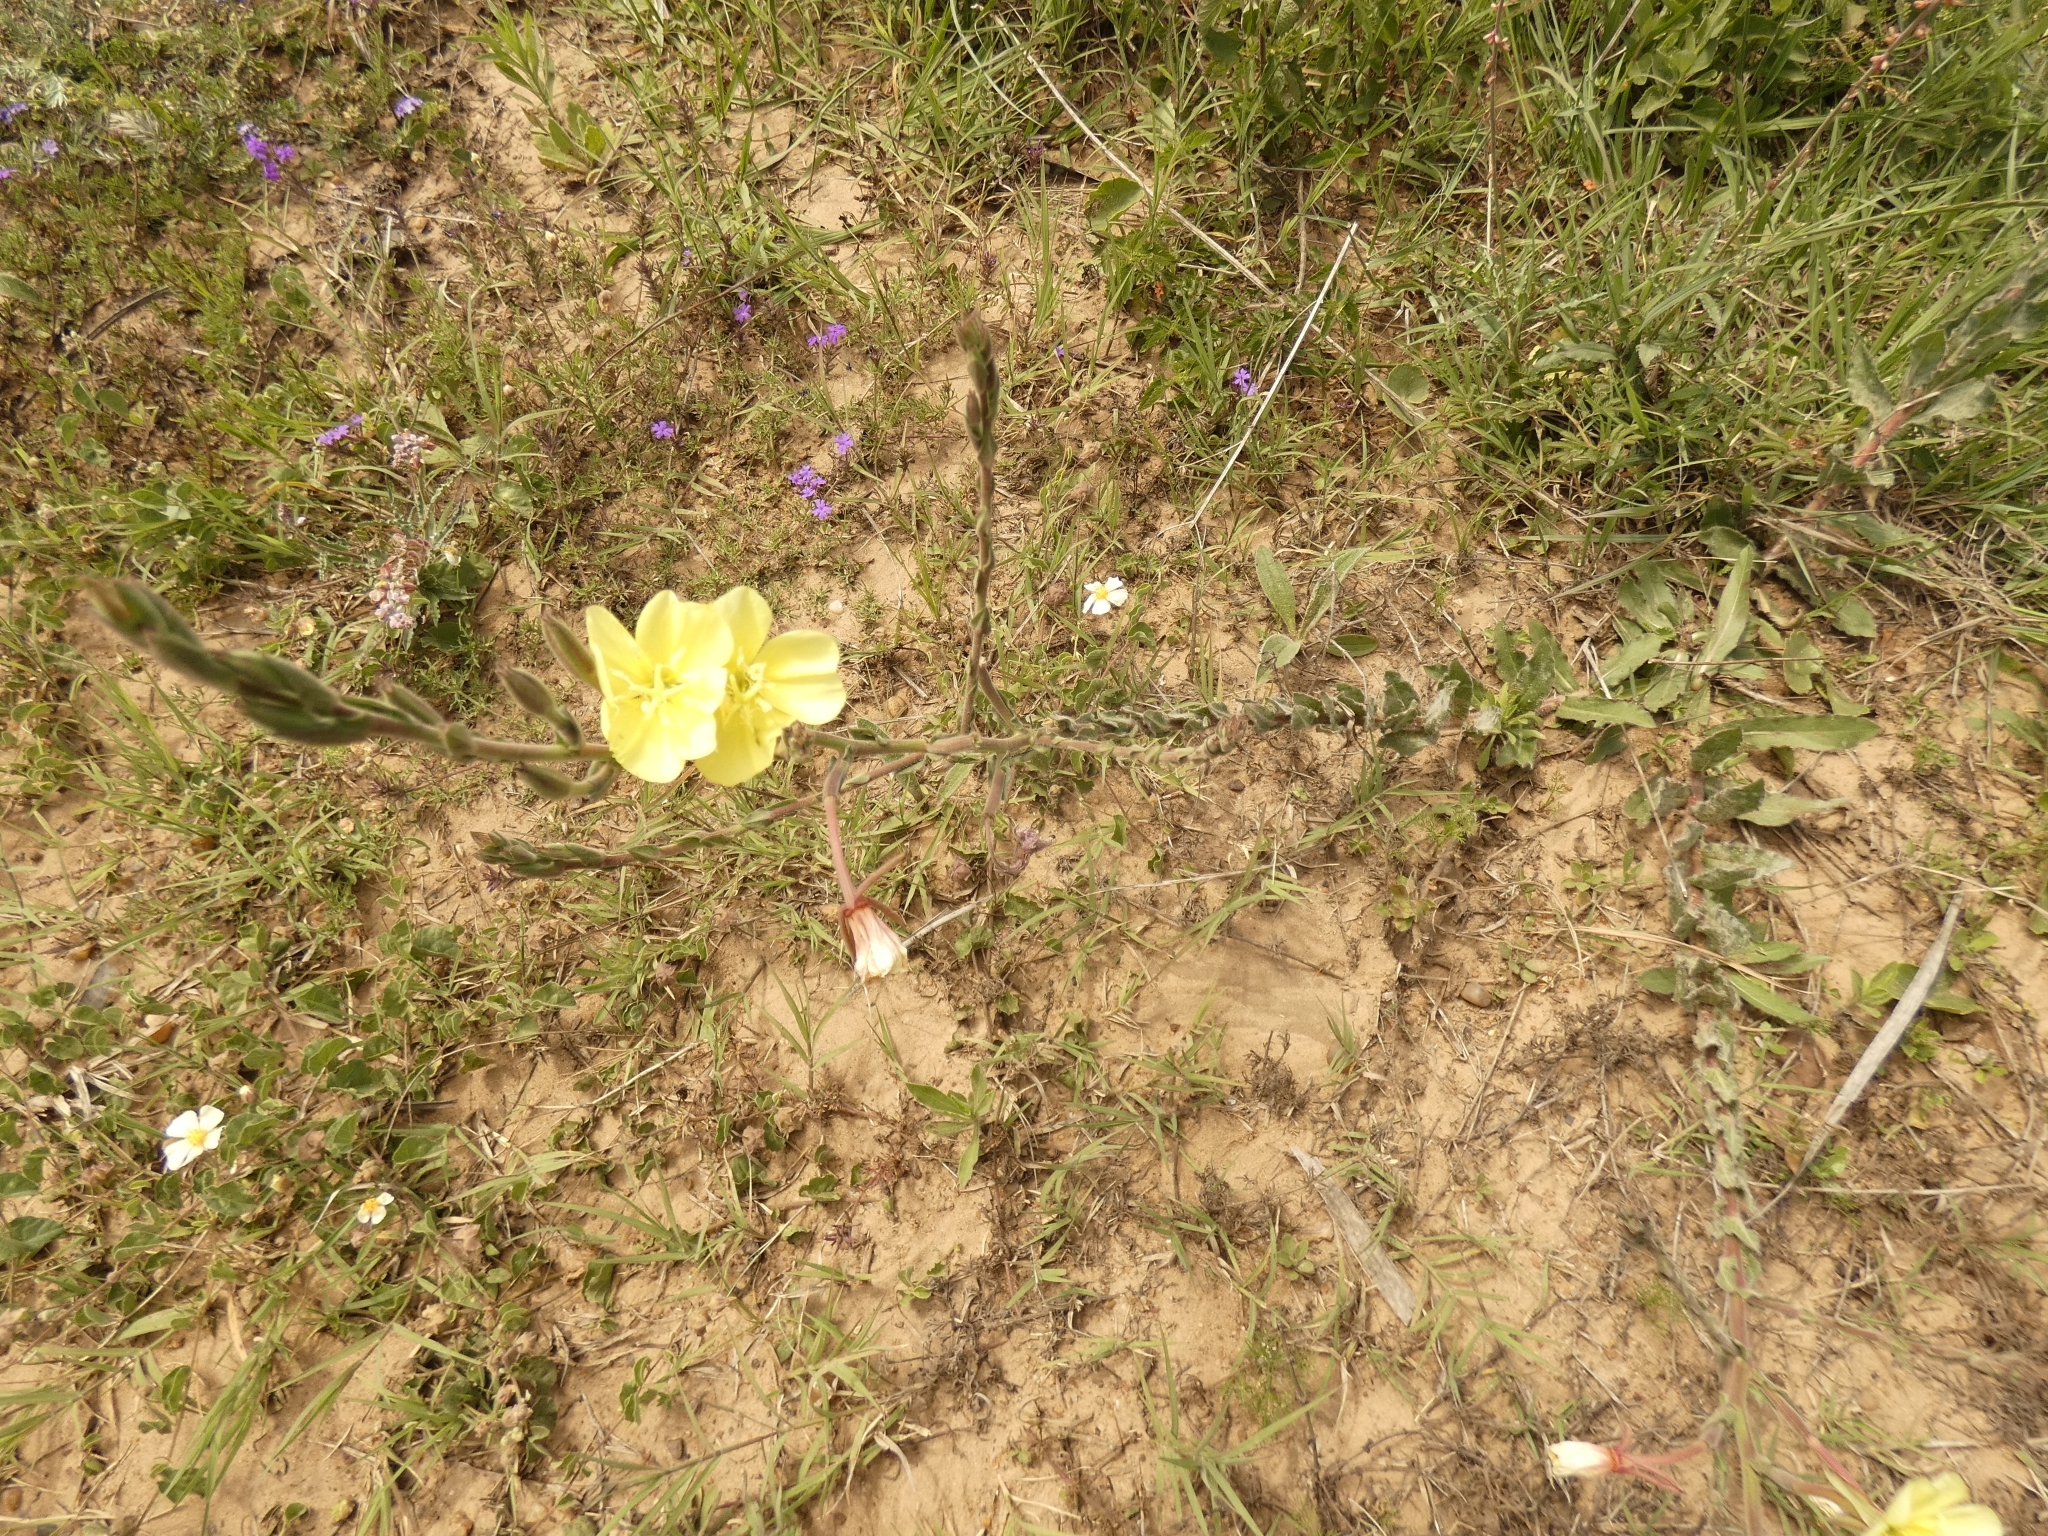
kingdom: Plantae
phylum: Tracheophyta
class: Magnoliopsida
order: Myrtales
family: Onagraceae
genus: Oenothera
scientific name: Oenothera affinis
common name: Longflower evening primrose
